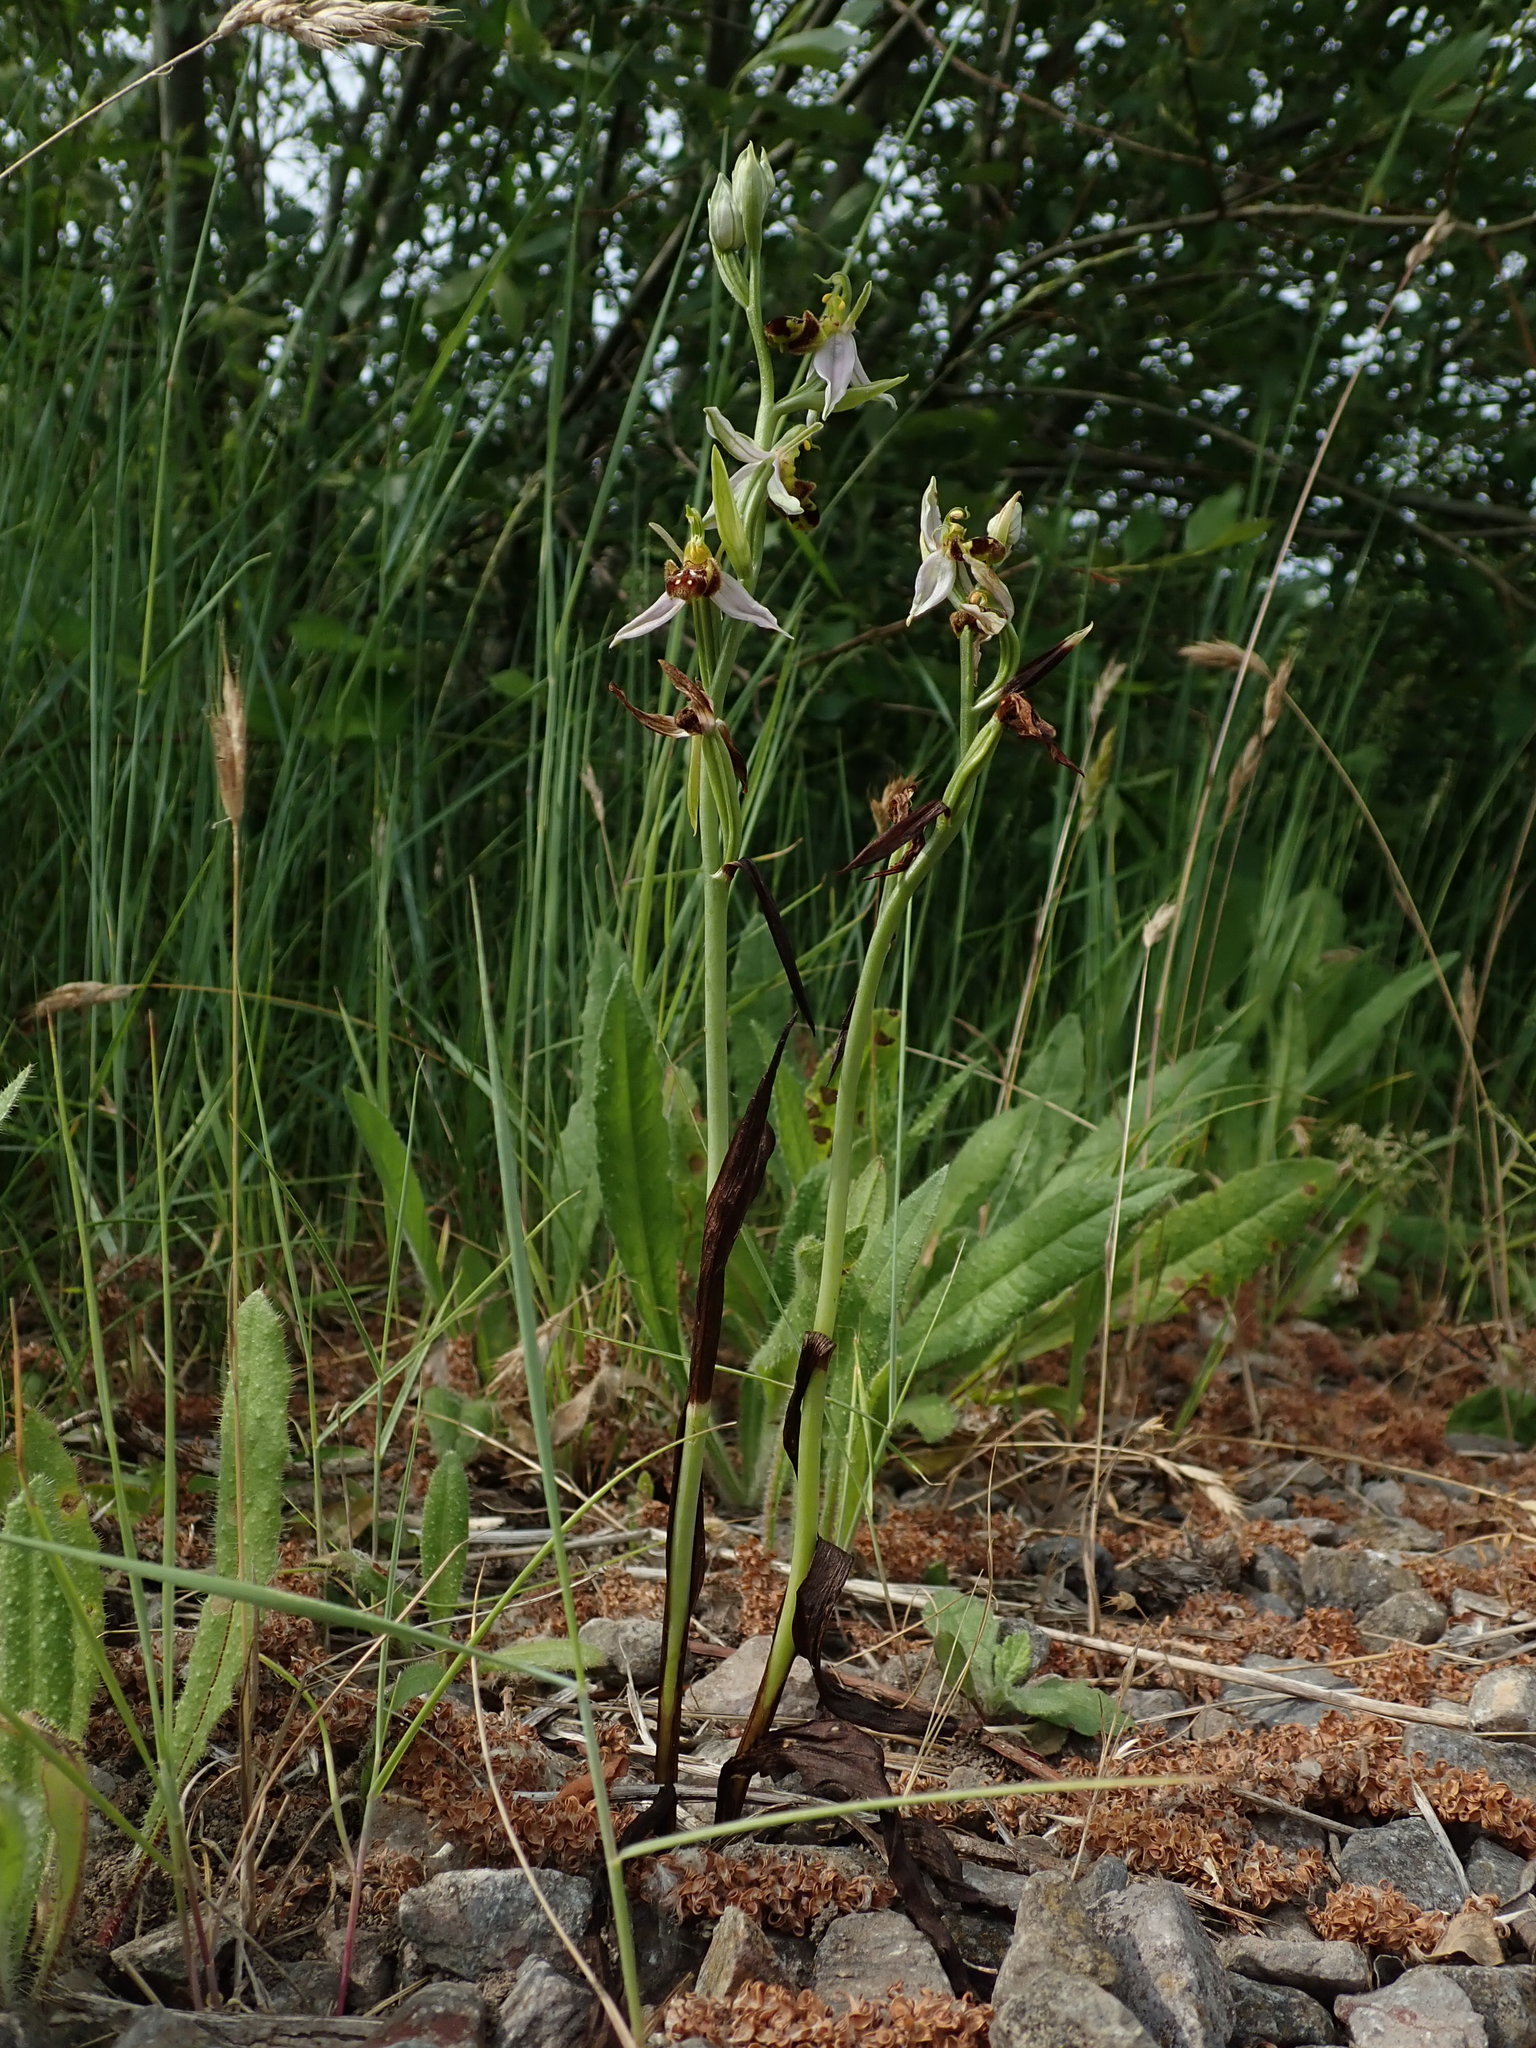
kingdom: Plantae
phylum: Tracheophyta
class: Liliopsida
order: Asparagales
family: Orchidaceae
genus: Ophrys
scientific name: Ophrys apifera
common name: Bee orchid
